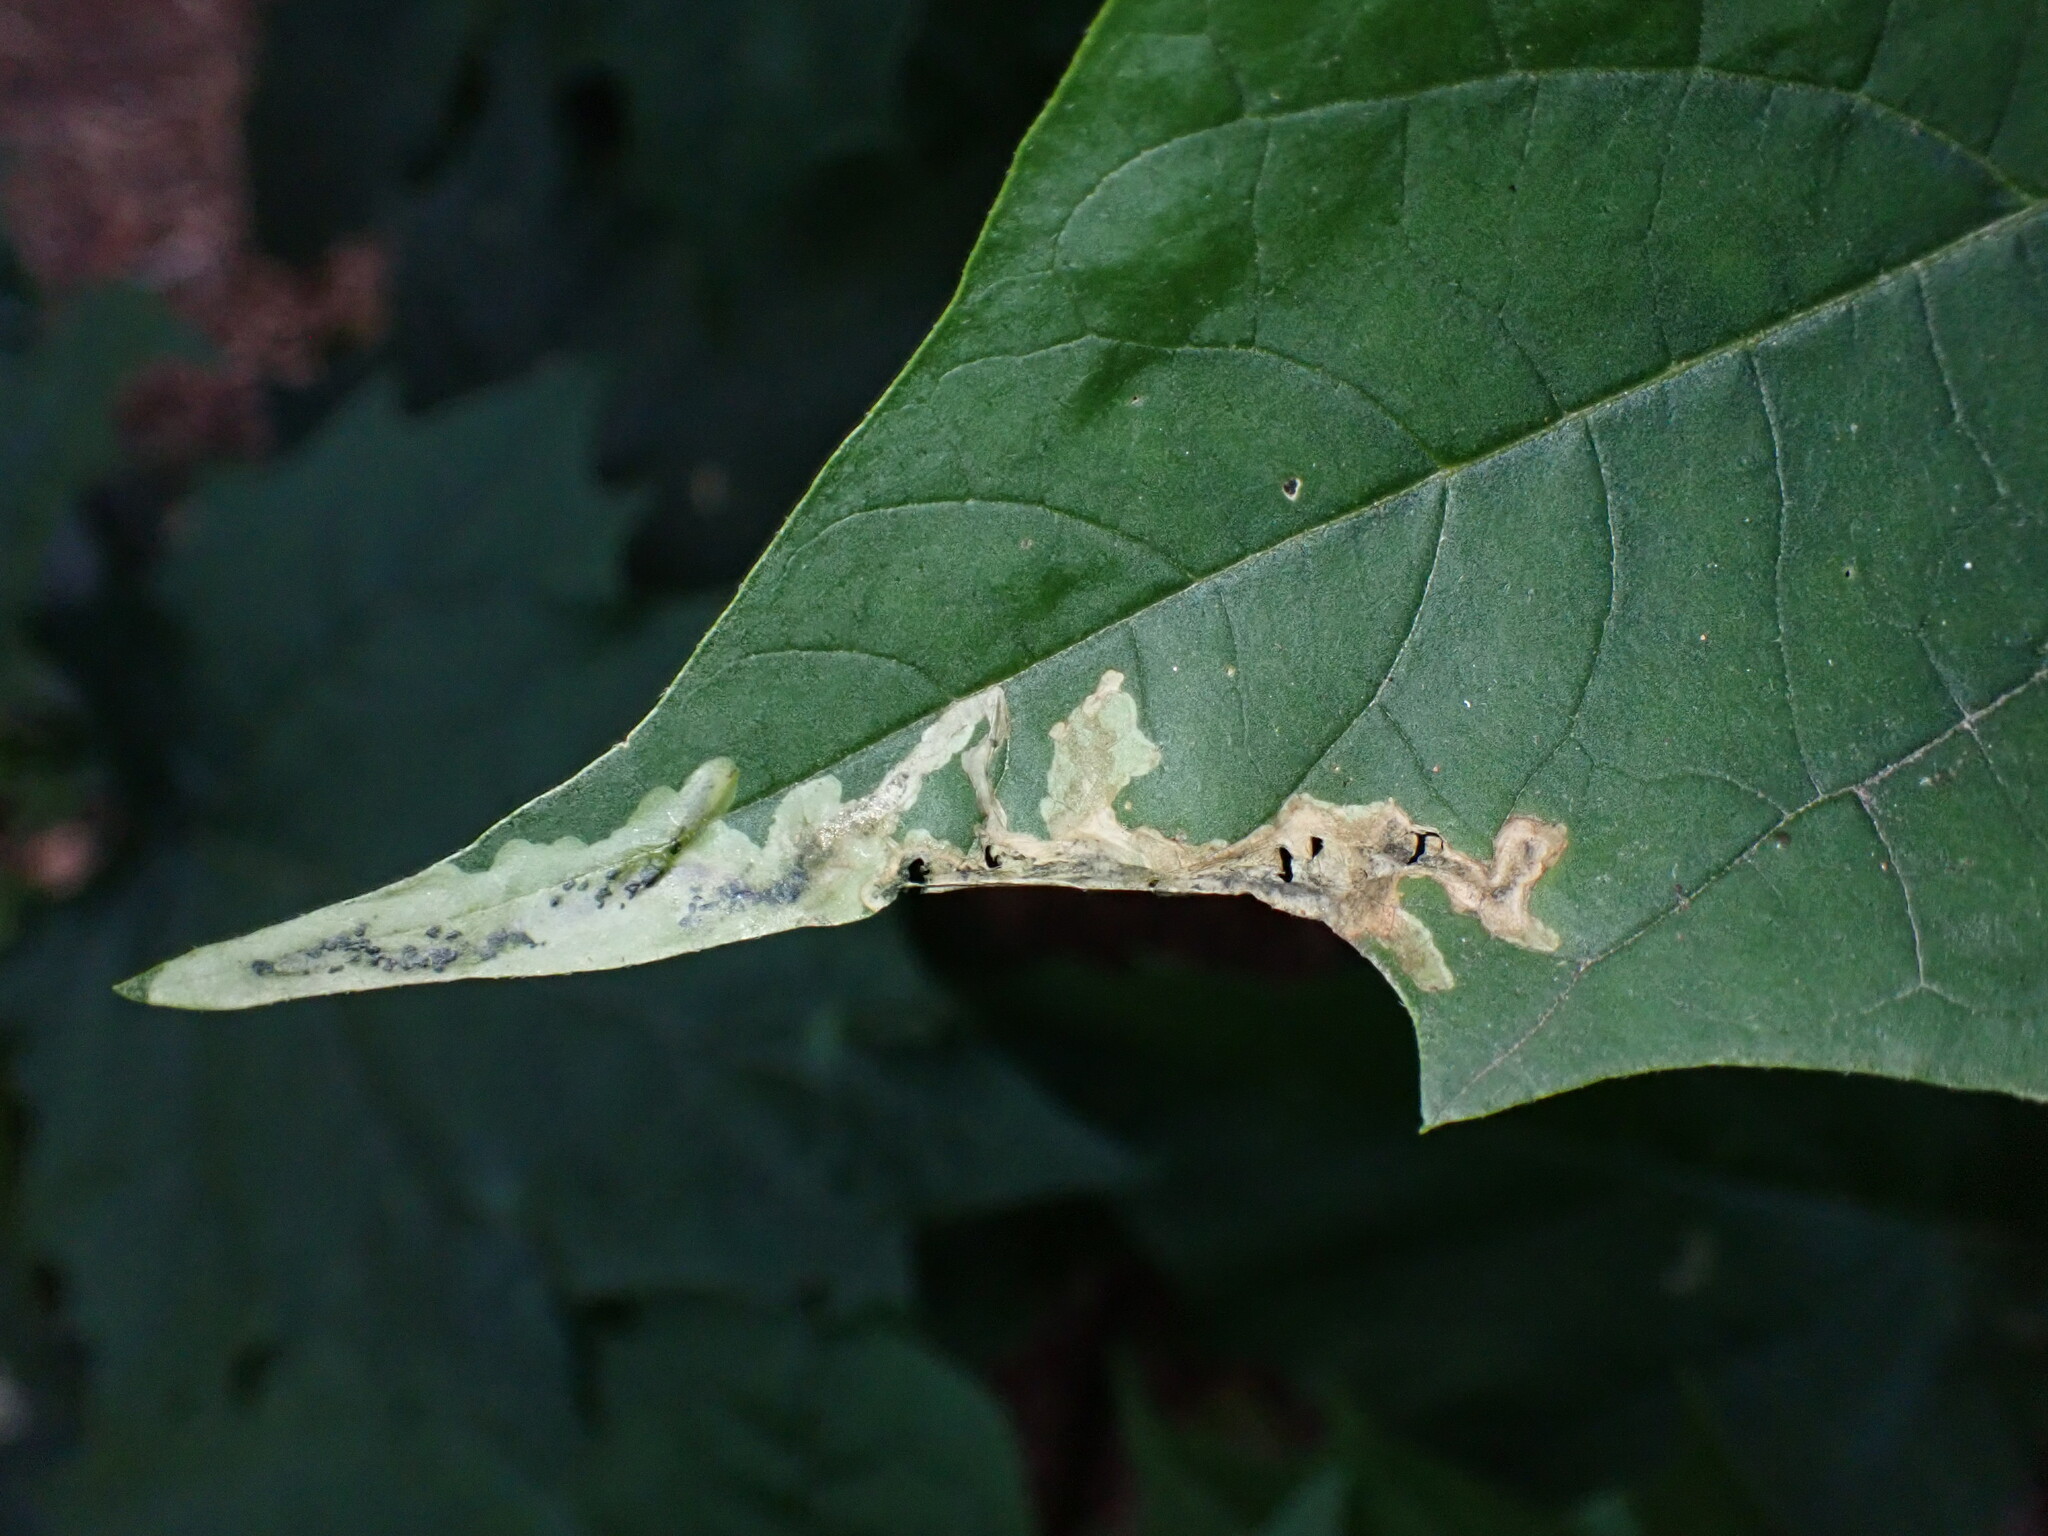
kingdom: Animalia
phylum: Arthropoda
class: Insecta
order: Diptera
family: Anthomyiidae
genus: Pegomya
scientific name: Pegomya hyoscyami
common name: Parasitic fly
